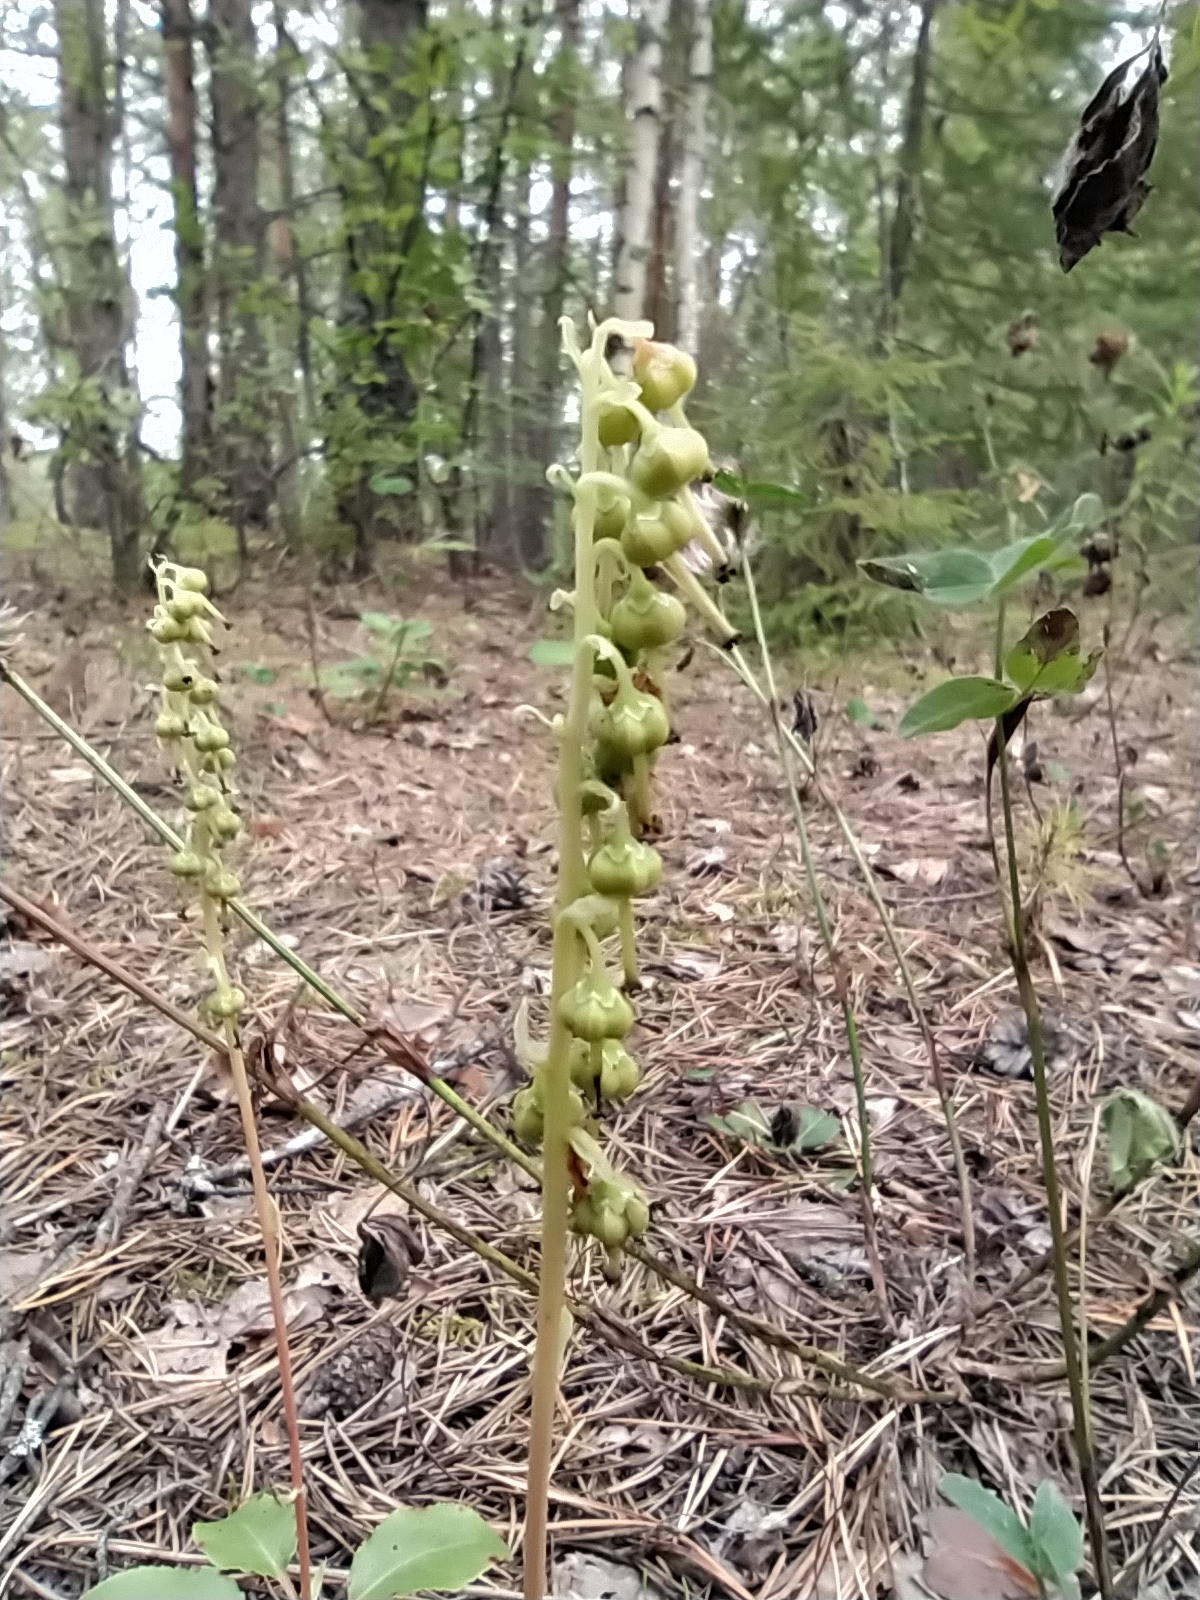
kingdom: Plantae
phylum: Tracheophyta
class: Magnoliopsida
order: Ericales
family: Ericaceae
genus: Orthilia
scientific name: Orthilia secunda
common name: One-sided orthilia
